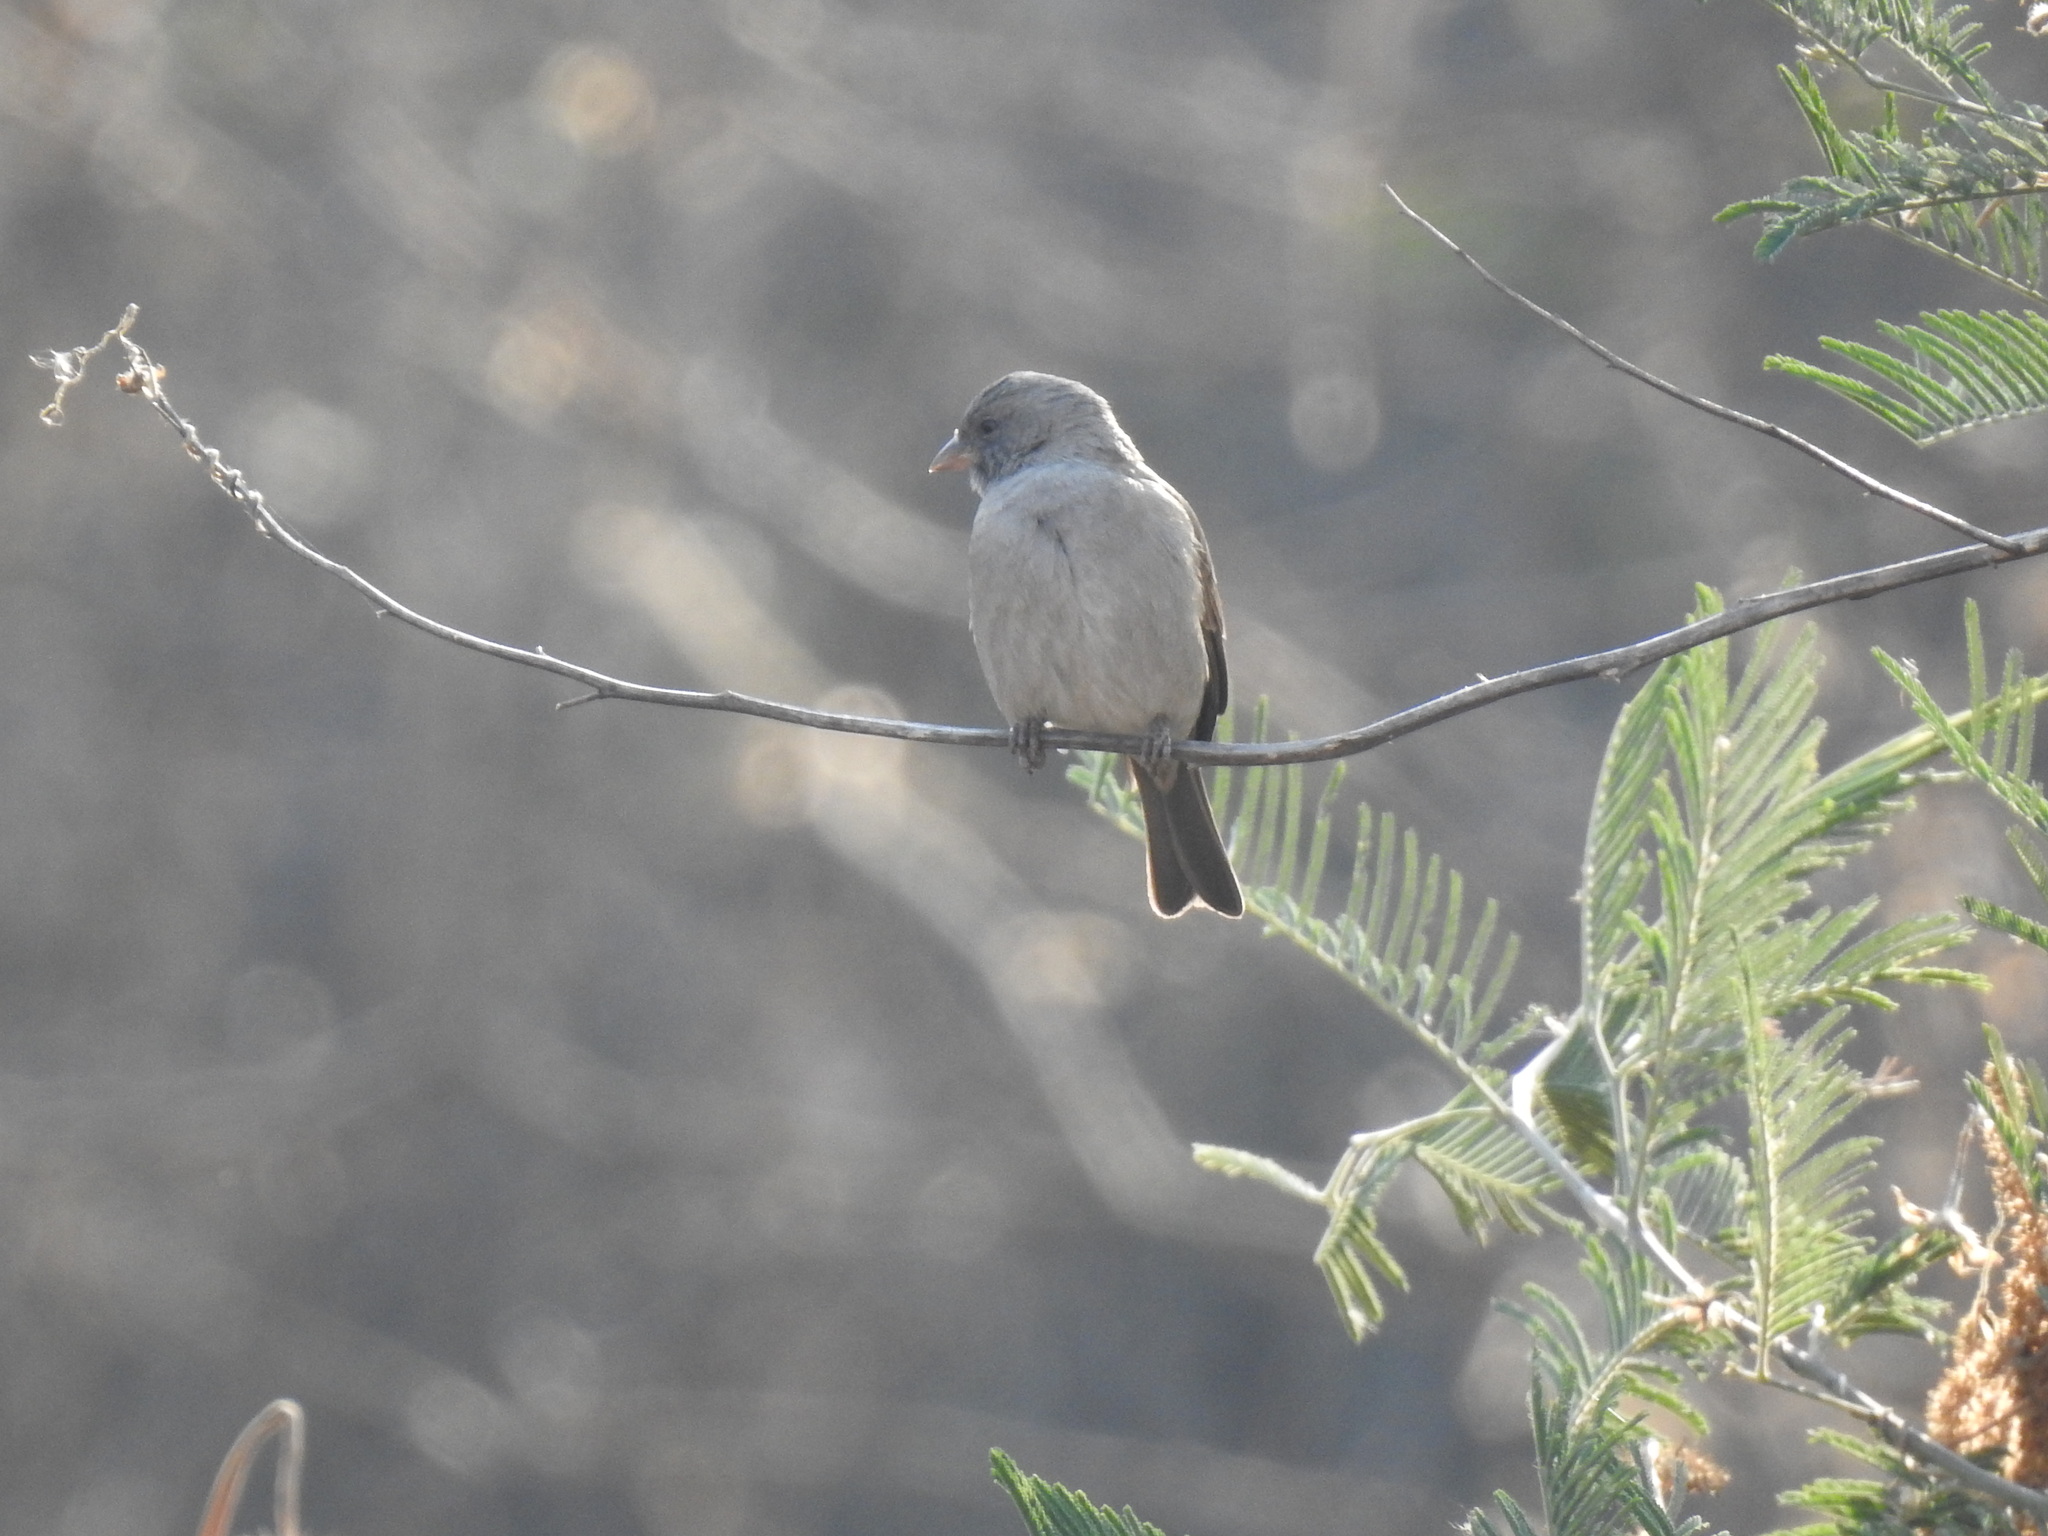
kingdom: Animalia
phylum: Chordata
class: Aves
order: Passeriformes
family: Passeridae
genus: Passer
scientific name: Passer diffusus
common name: Southern grey-headed sparrow
